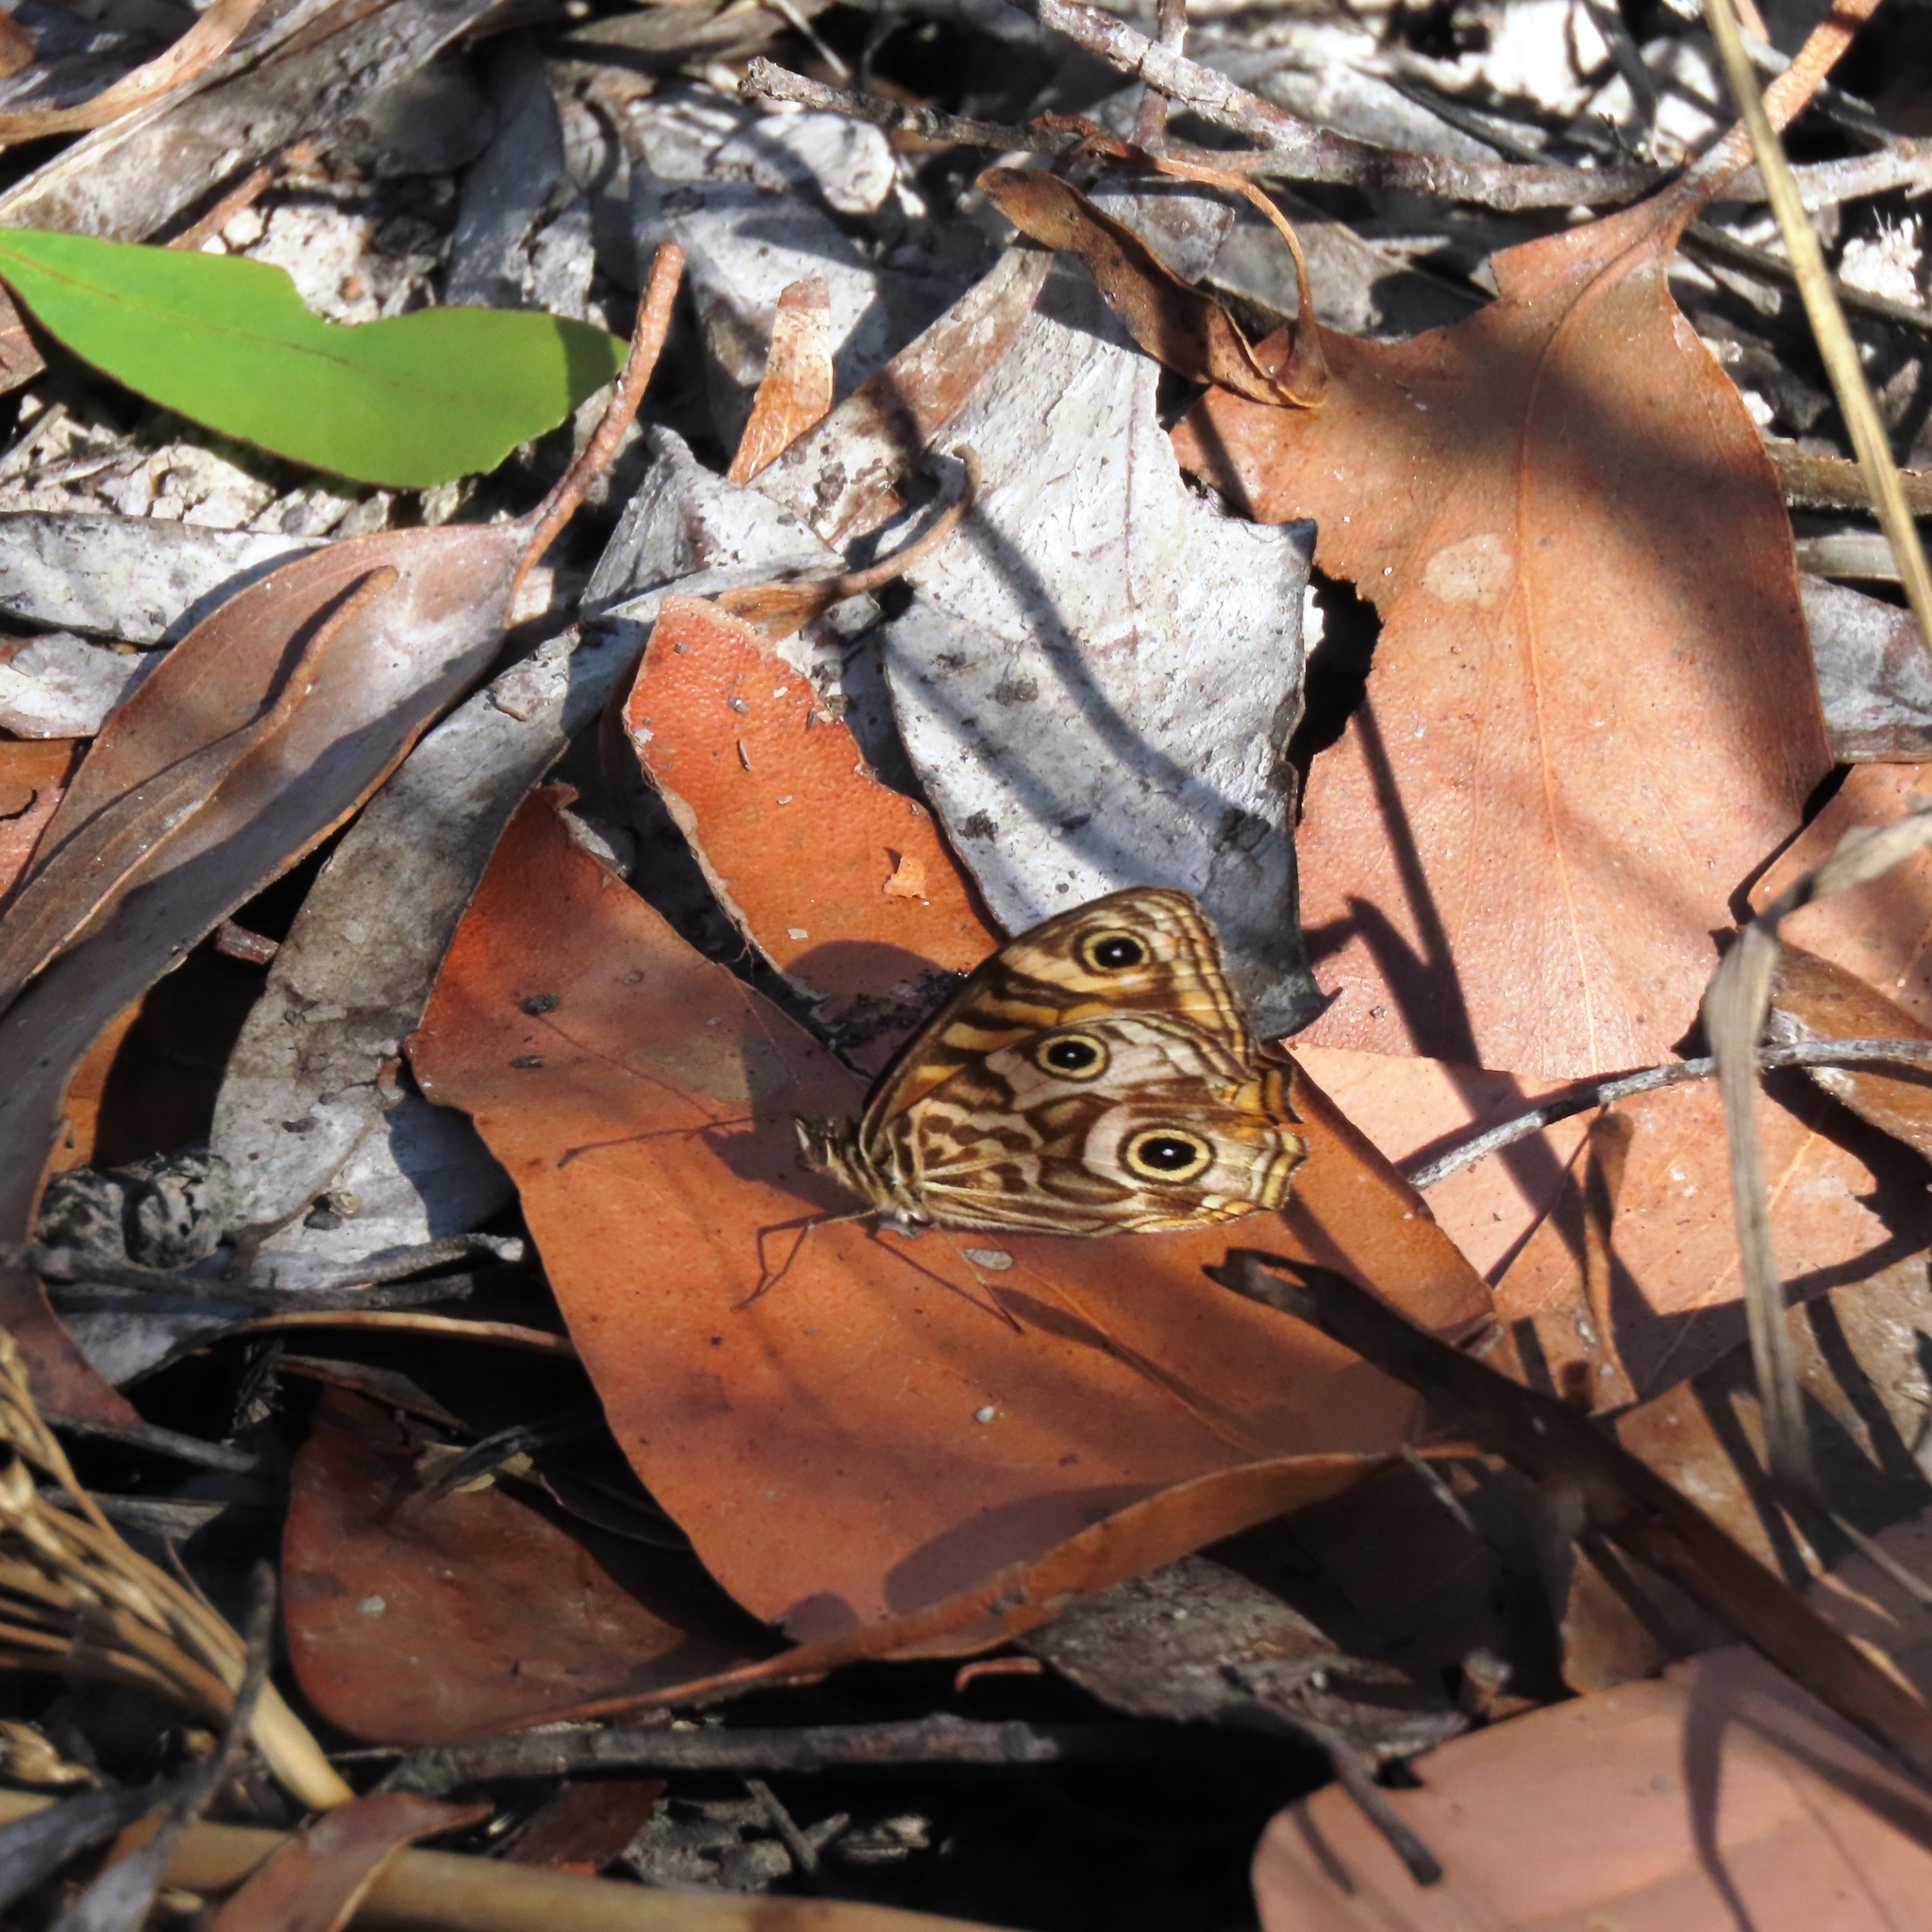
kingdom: Animalia
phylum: Arthropoda
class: Insecta
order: Lepidoptera
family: Nymphalidae
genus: Geitoneura
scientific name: Geitoneura acantha
